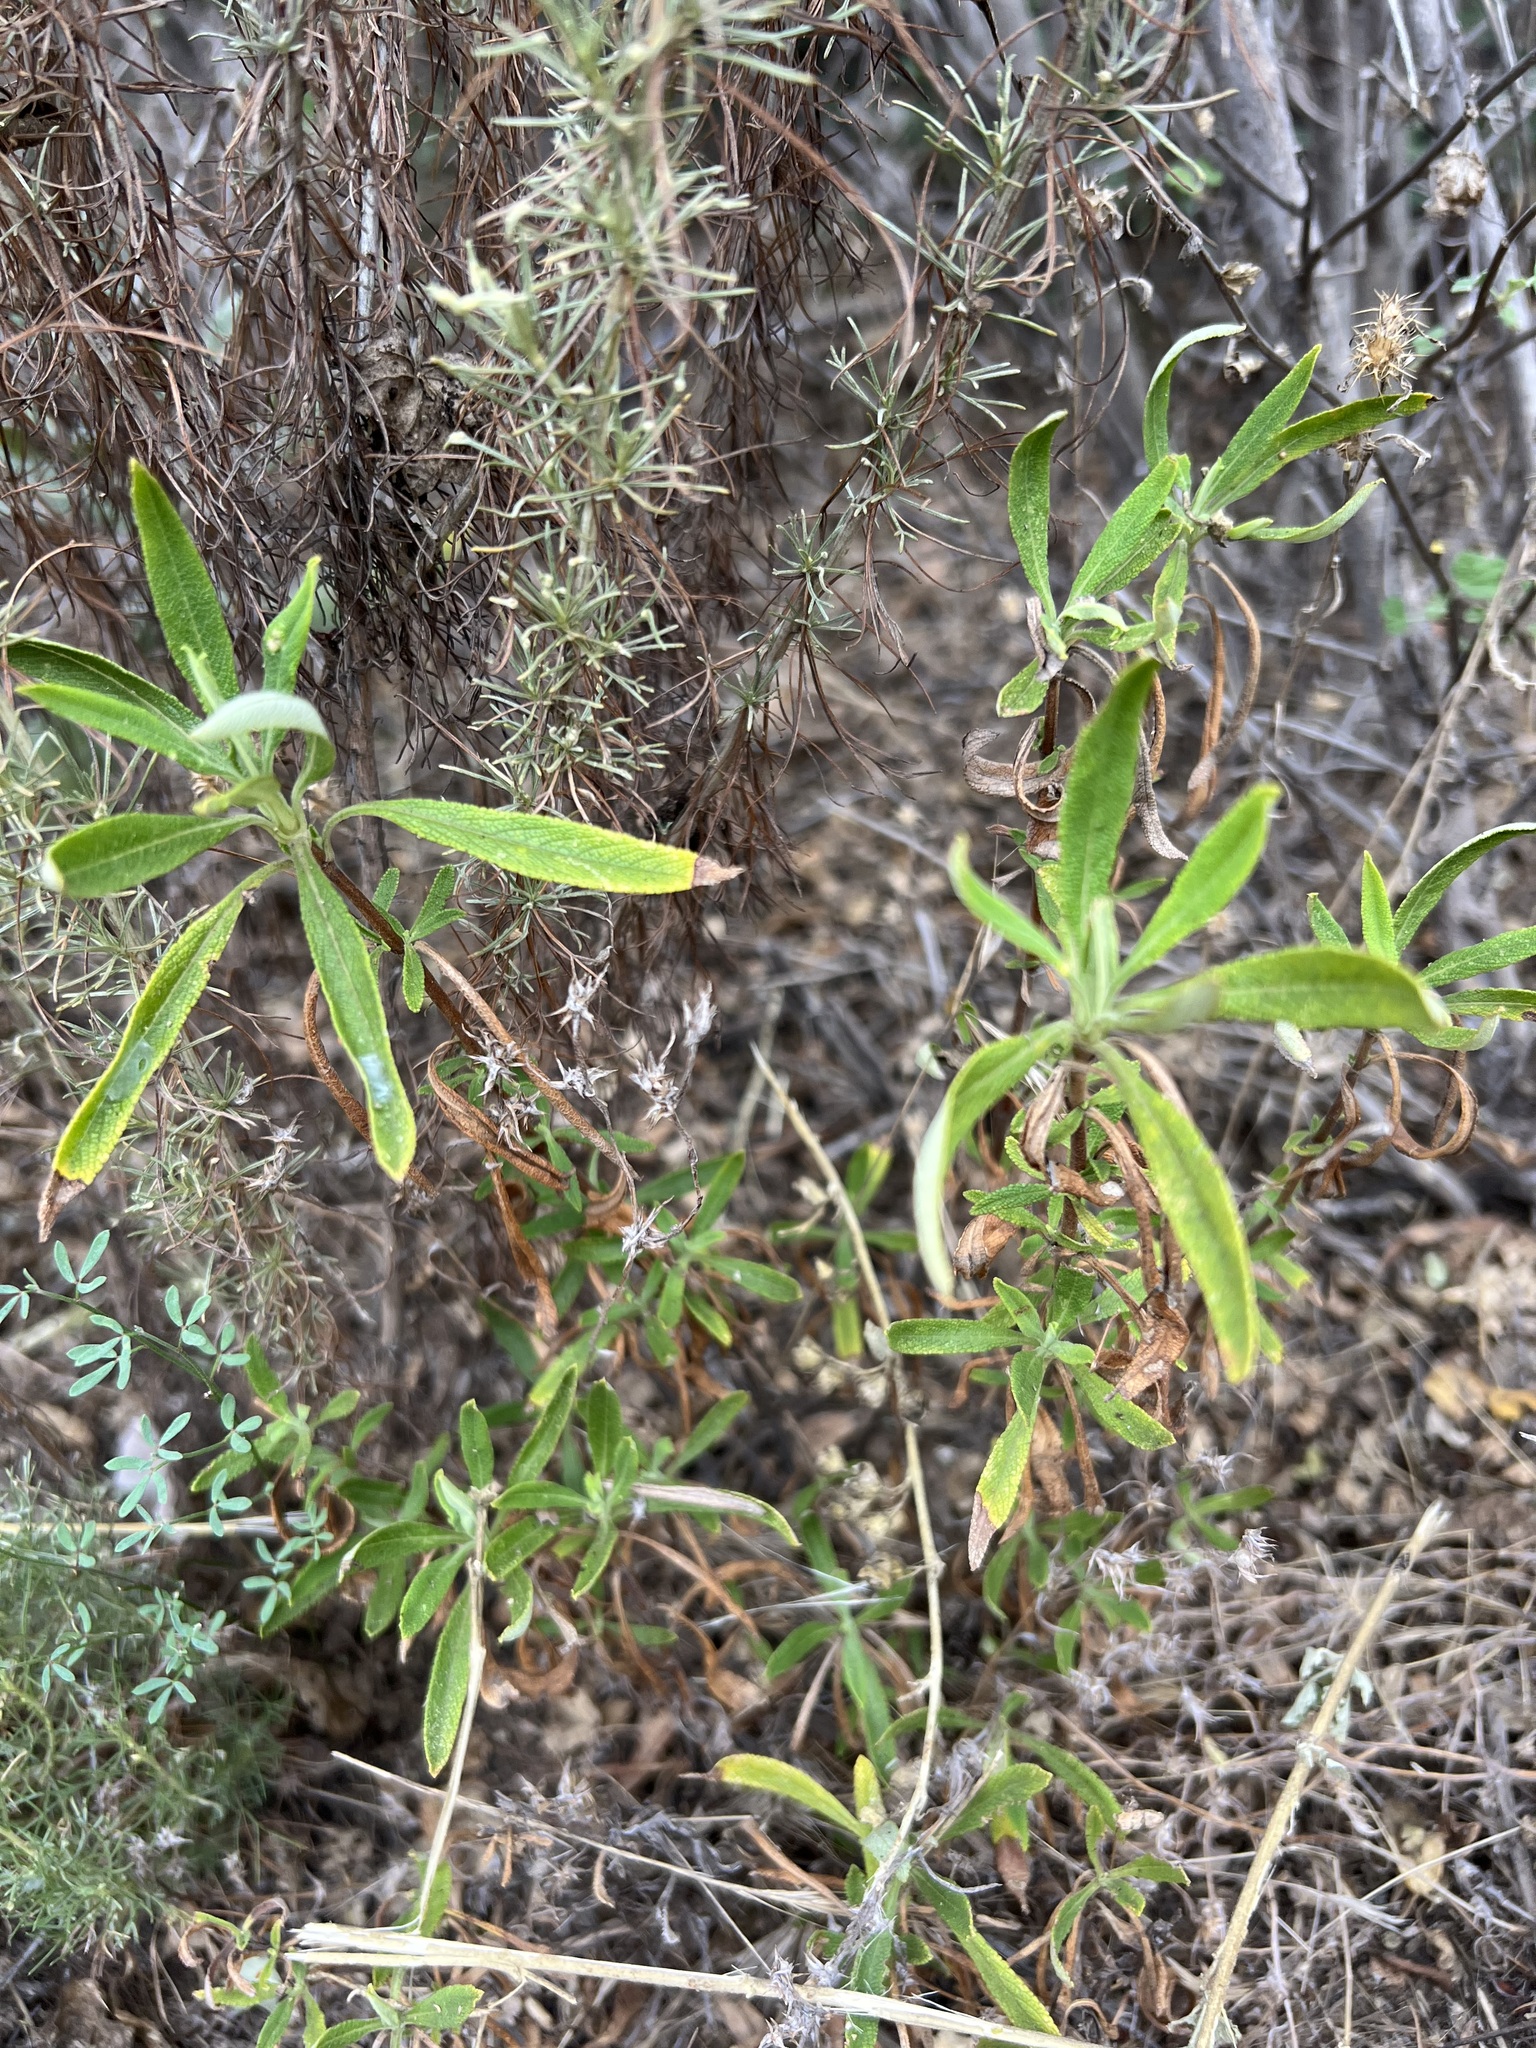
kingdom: Plantae
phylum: Tracheophyta
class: Magnoliopsida
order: Lamiales
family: Lamiaceae
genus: Salvia
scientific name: Salvia mellifera
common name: Black sage
